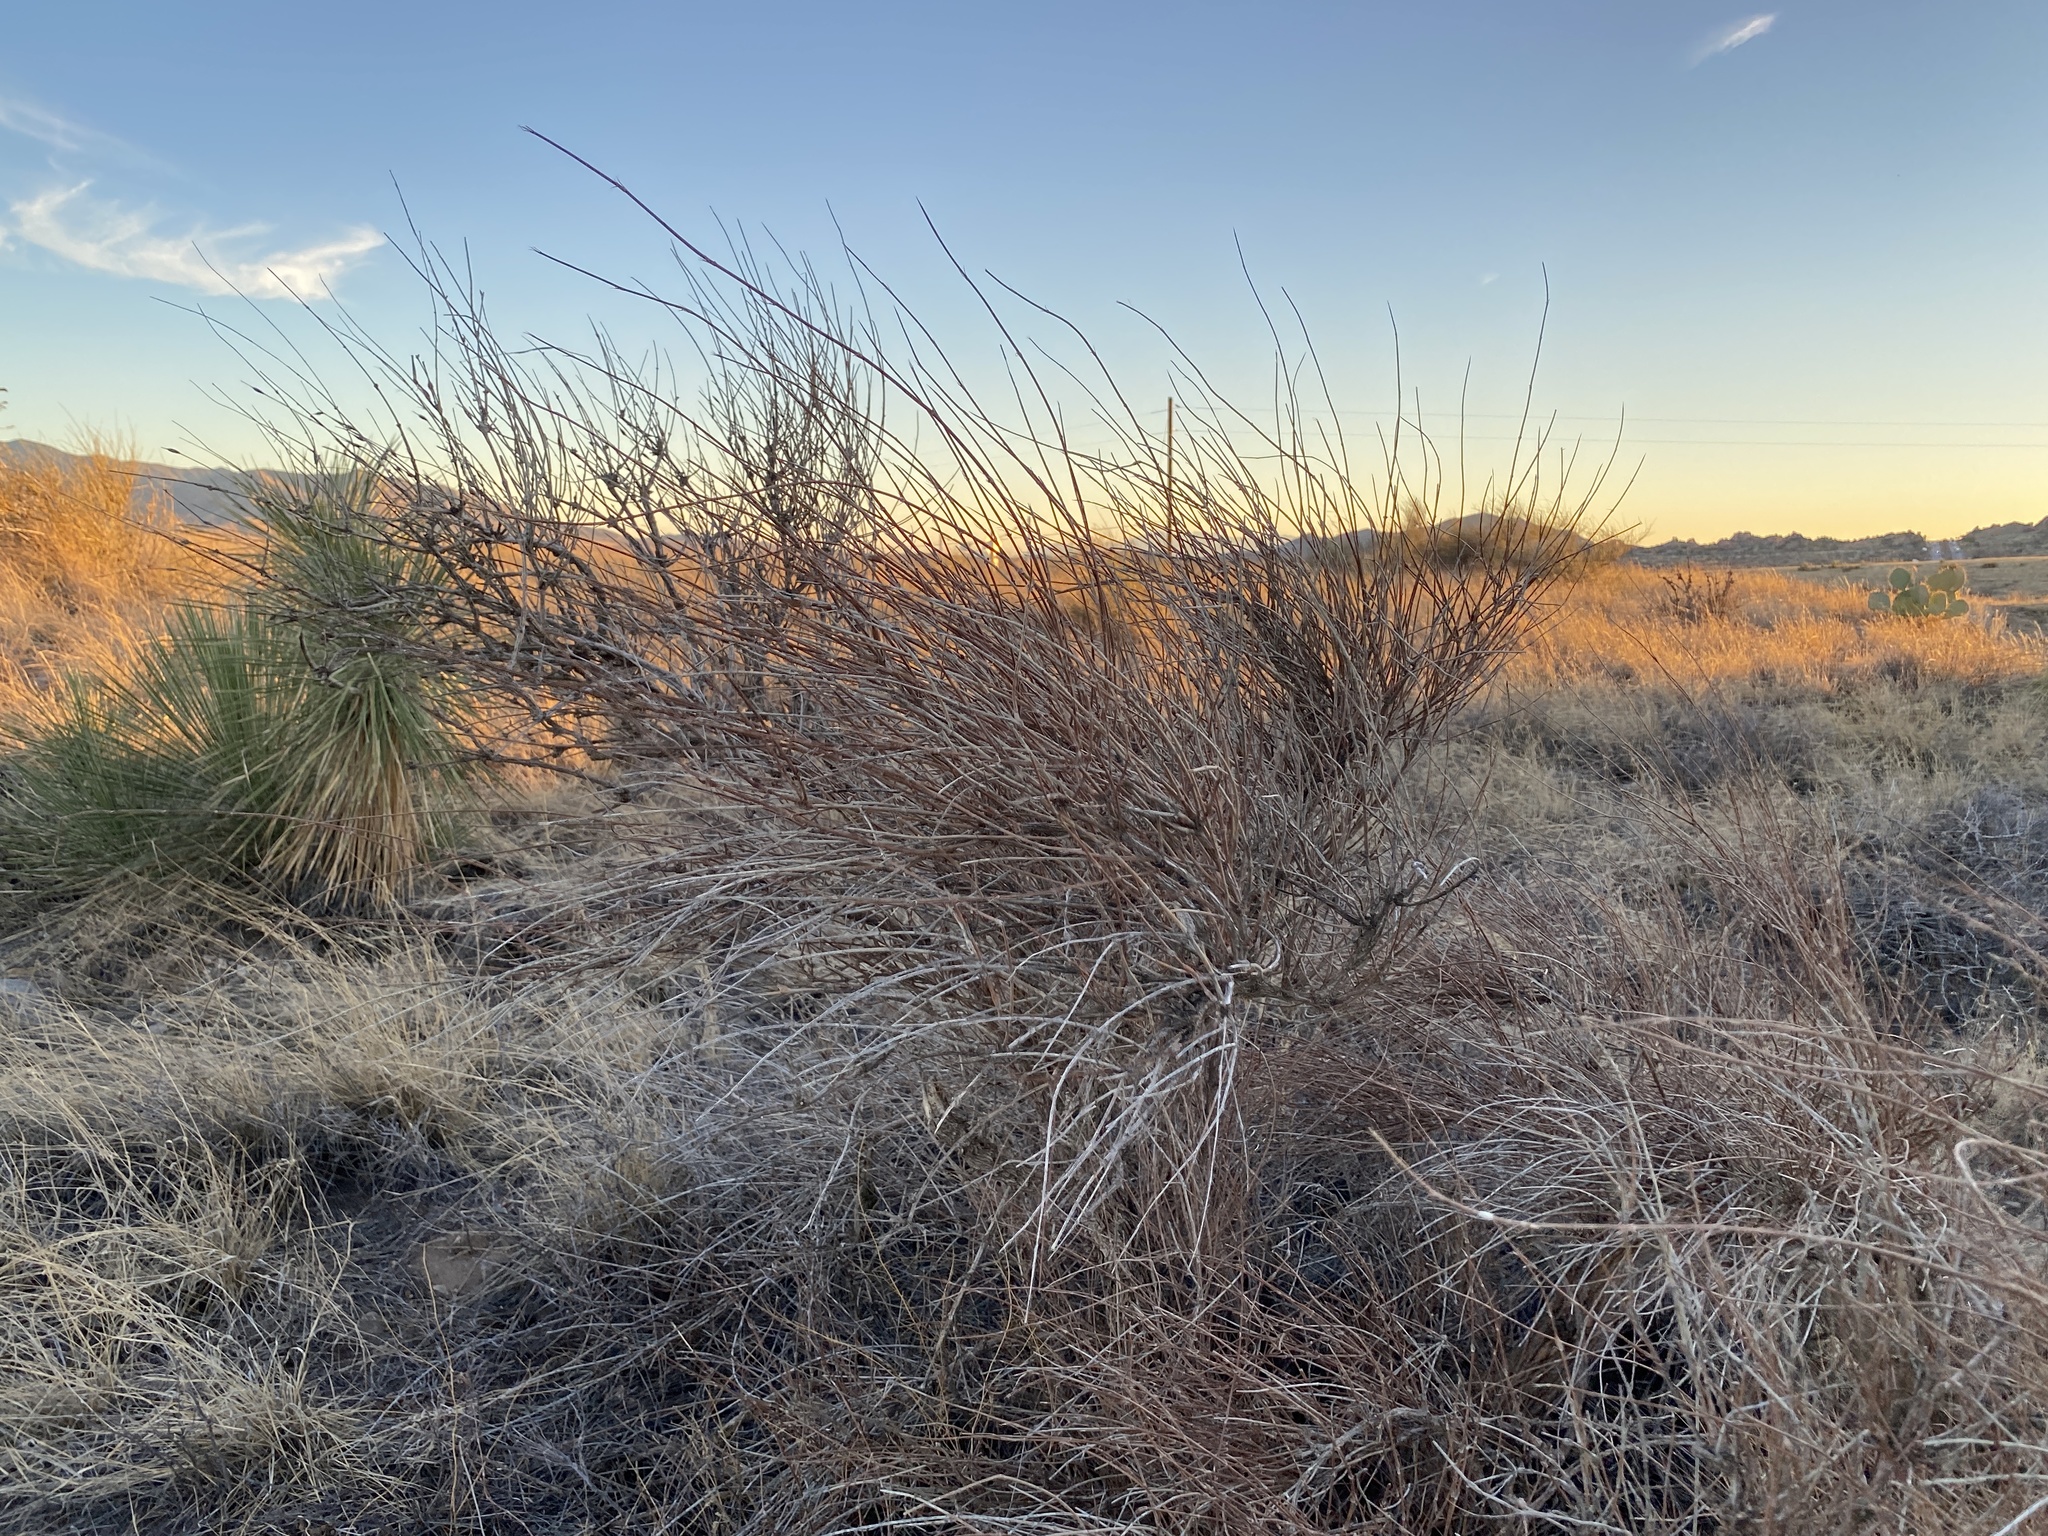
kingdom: Plantae
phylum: Tracheophyta
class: Gnetopsida
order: Ephedrales
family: Ephedraceae
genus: Ephedra
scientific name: Ephedra trifurca
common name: Mexican-tea
